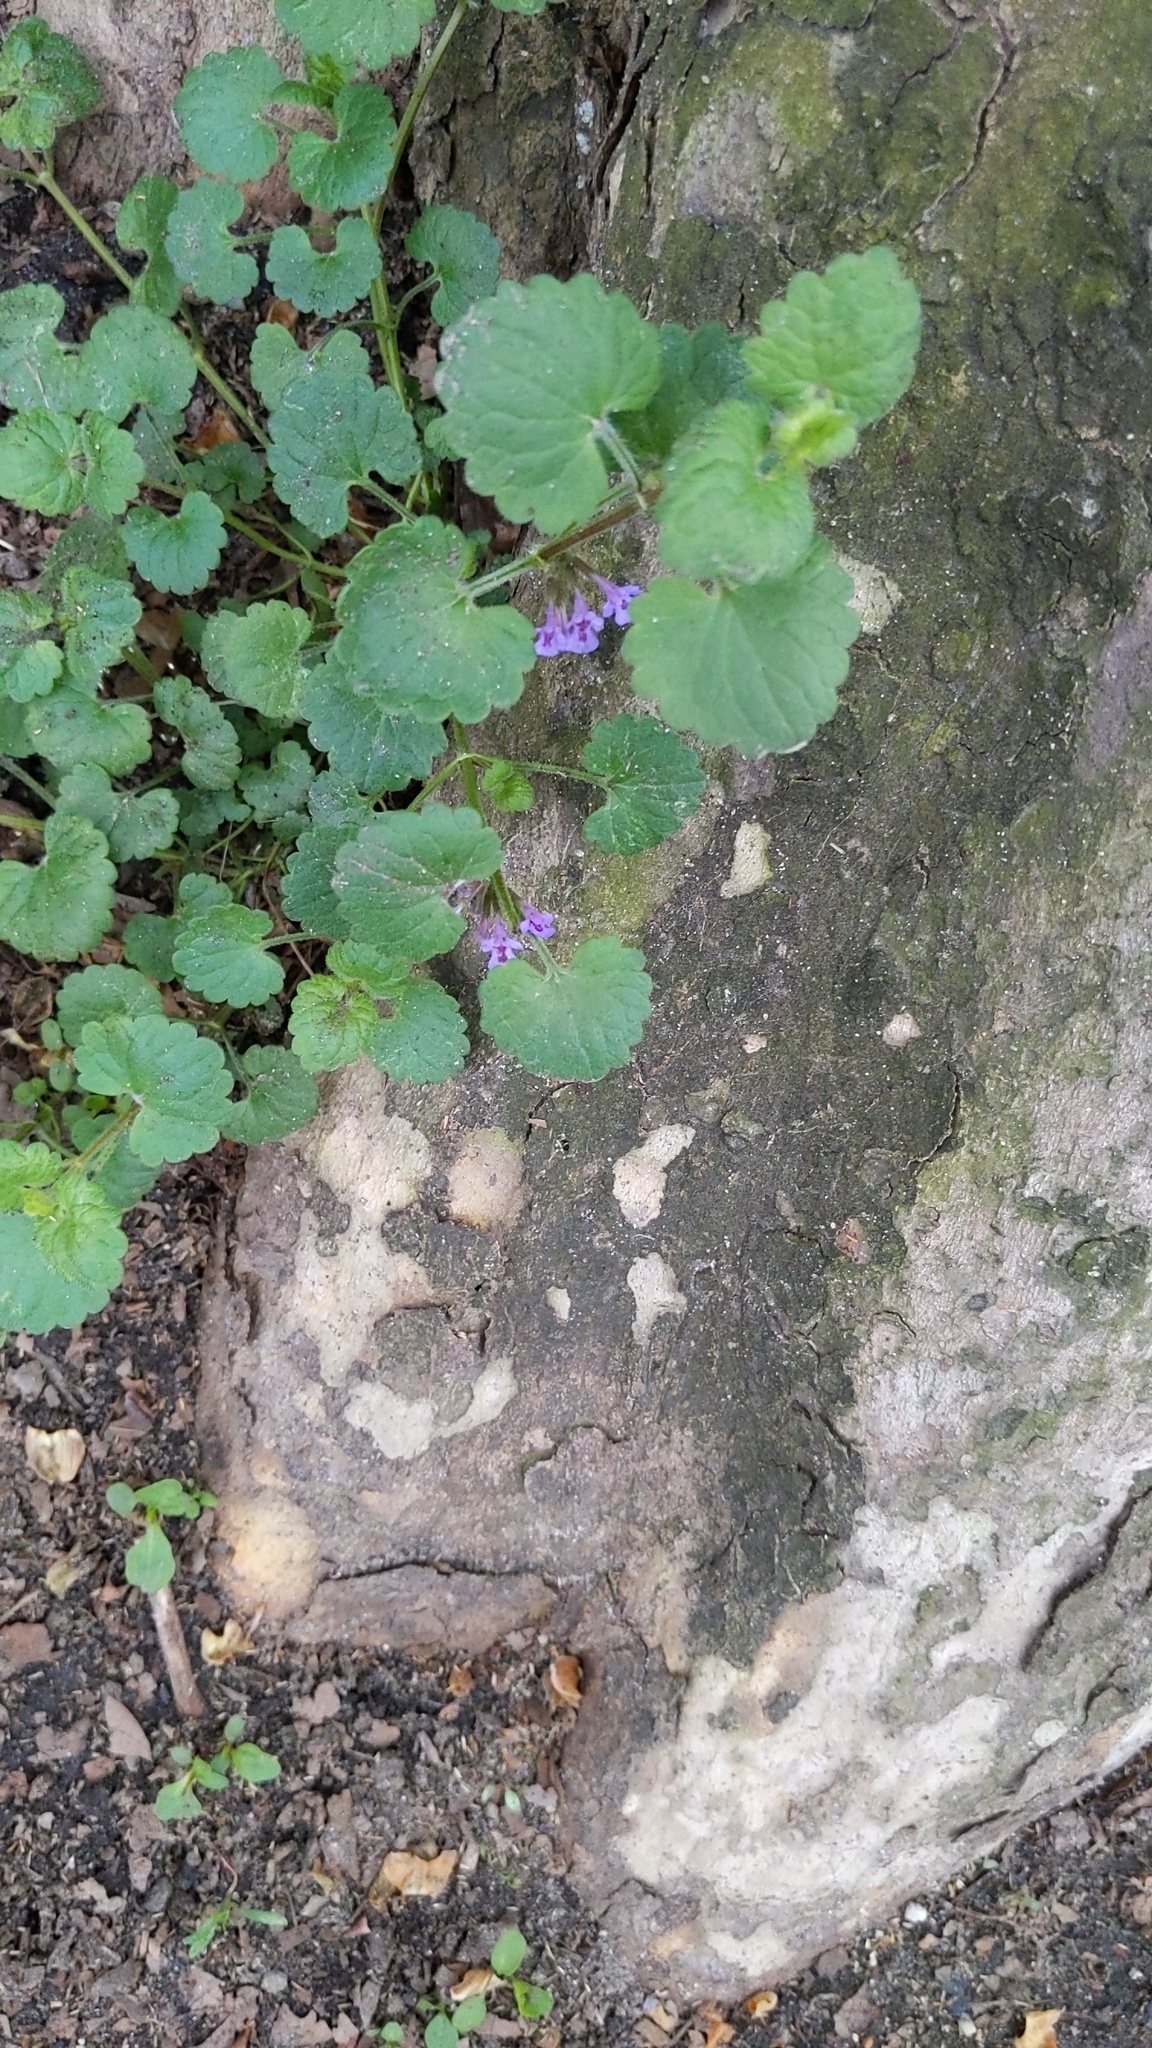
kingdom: Plantae
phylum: Tracheophyta
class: Magnoliopsida
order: Lamiales
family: Lamiaceae
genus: Glechoma
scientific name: Glechoma hederacea
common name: Ground ivy
